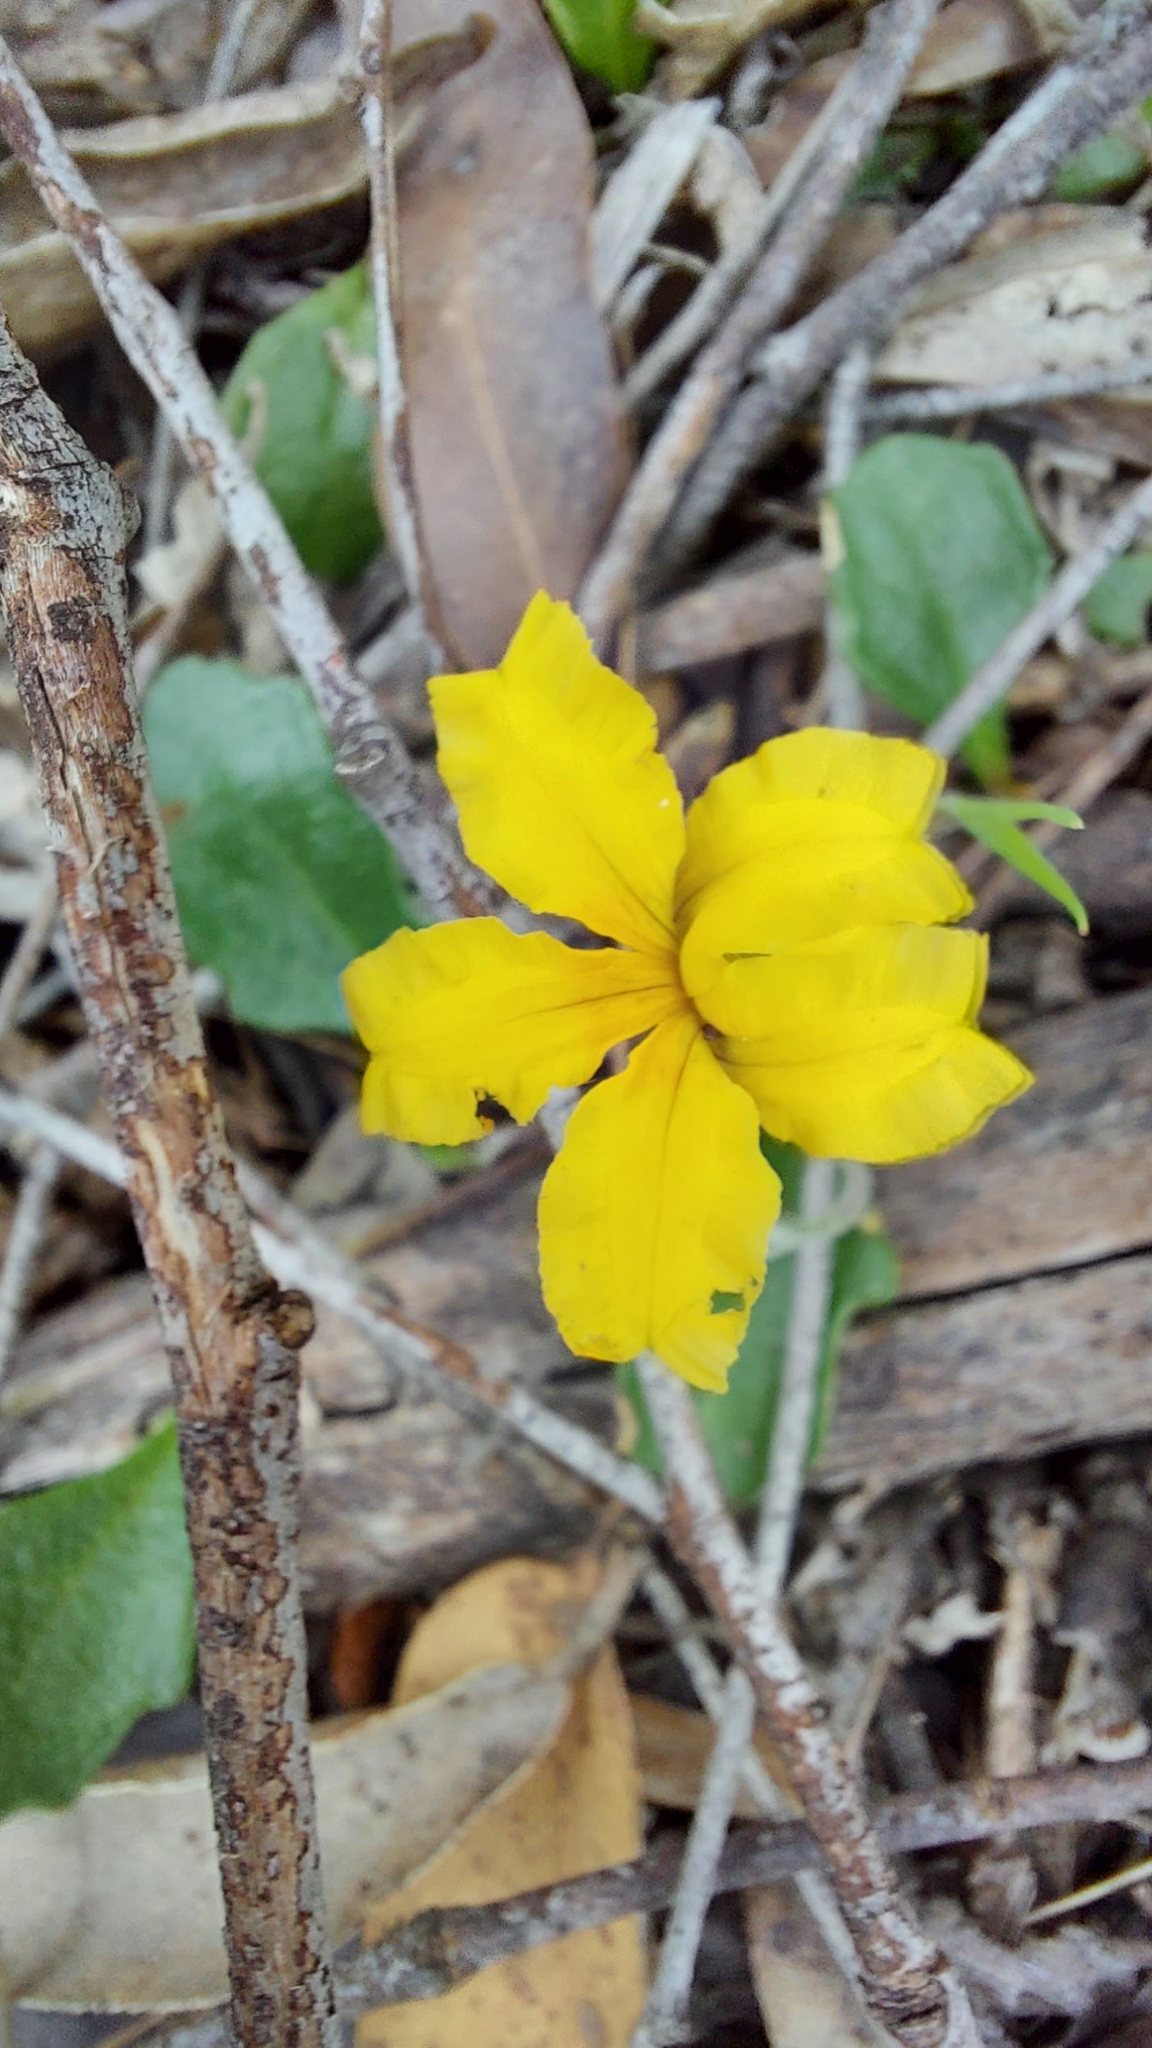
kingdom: Plantae
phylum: Tracheophyta
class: Magnoliopsida
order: Asterales
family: Goodeniaceae
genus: Goodenia
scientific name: Goodenia lanata
